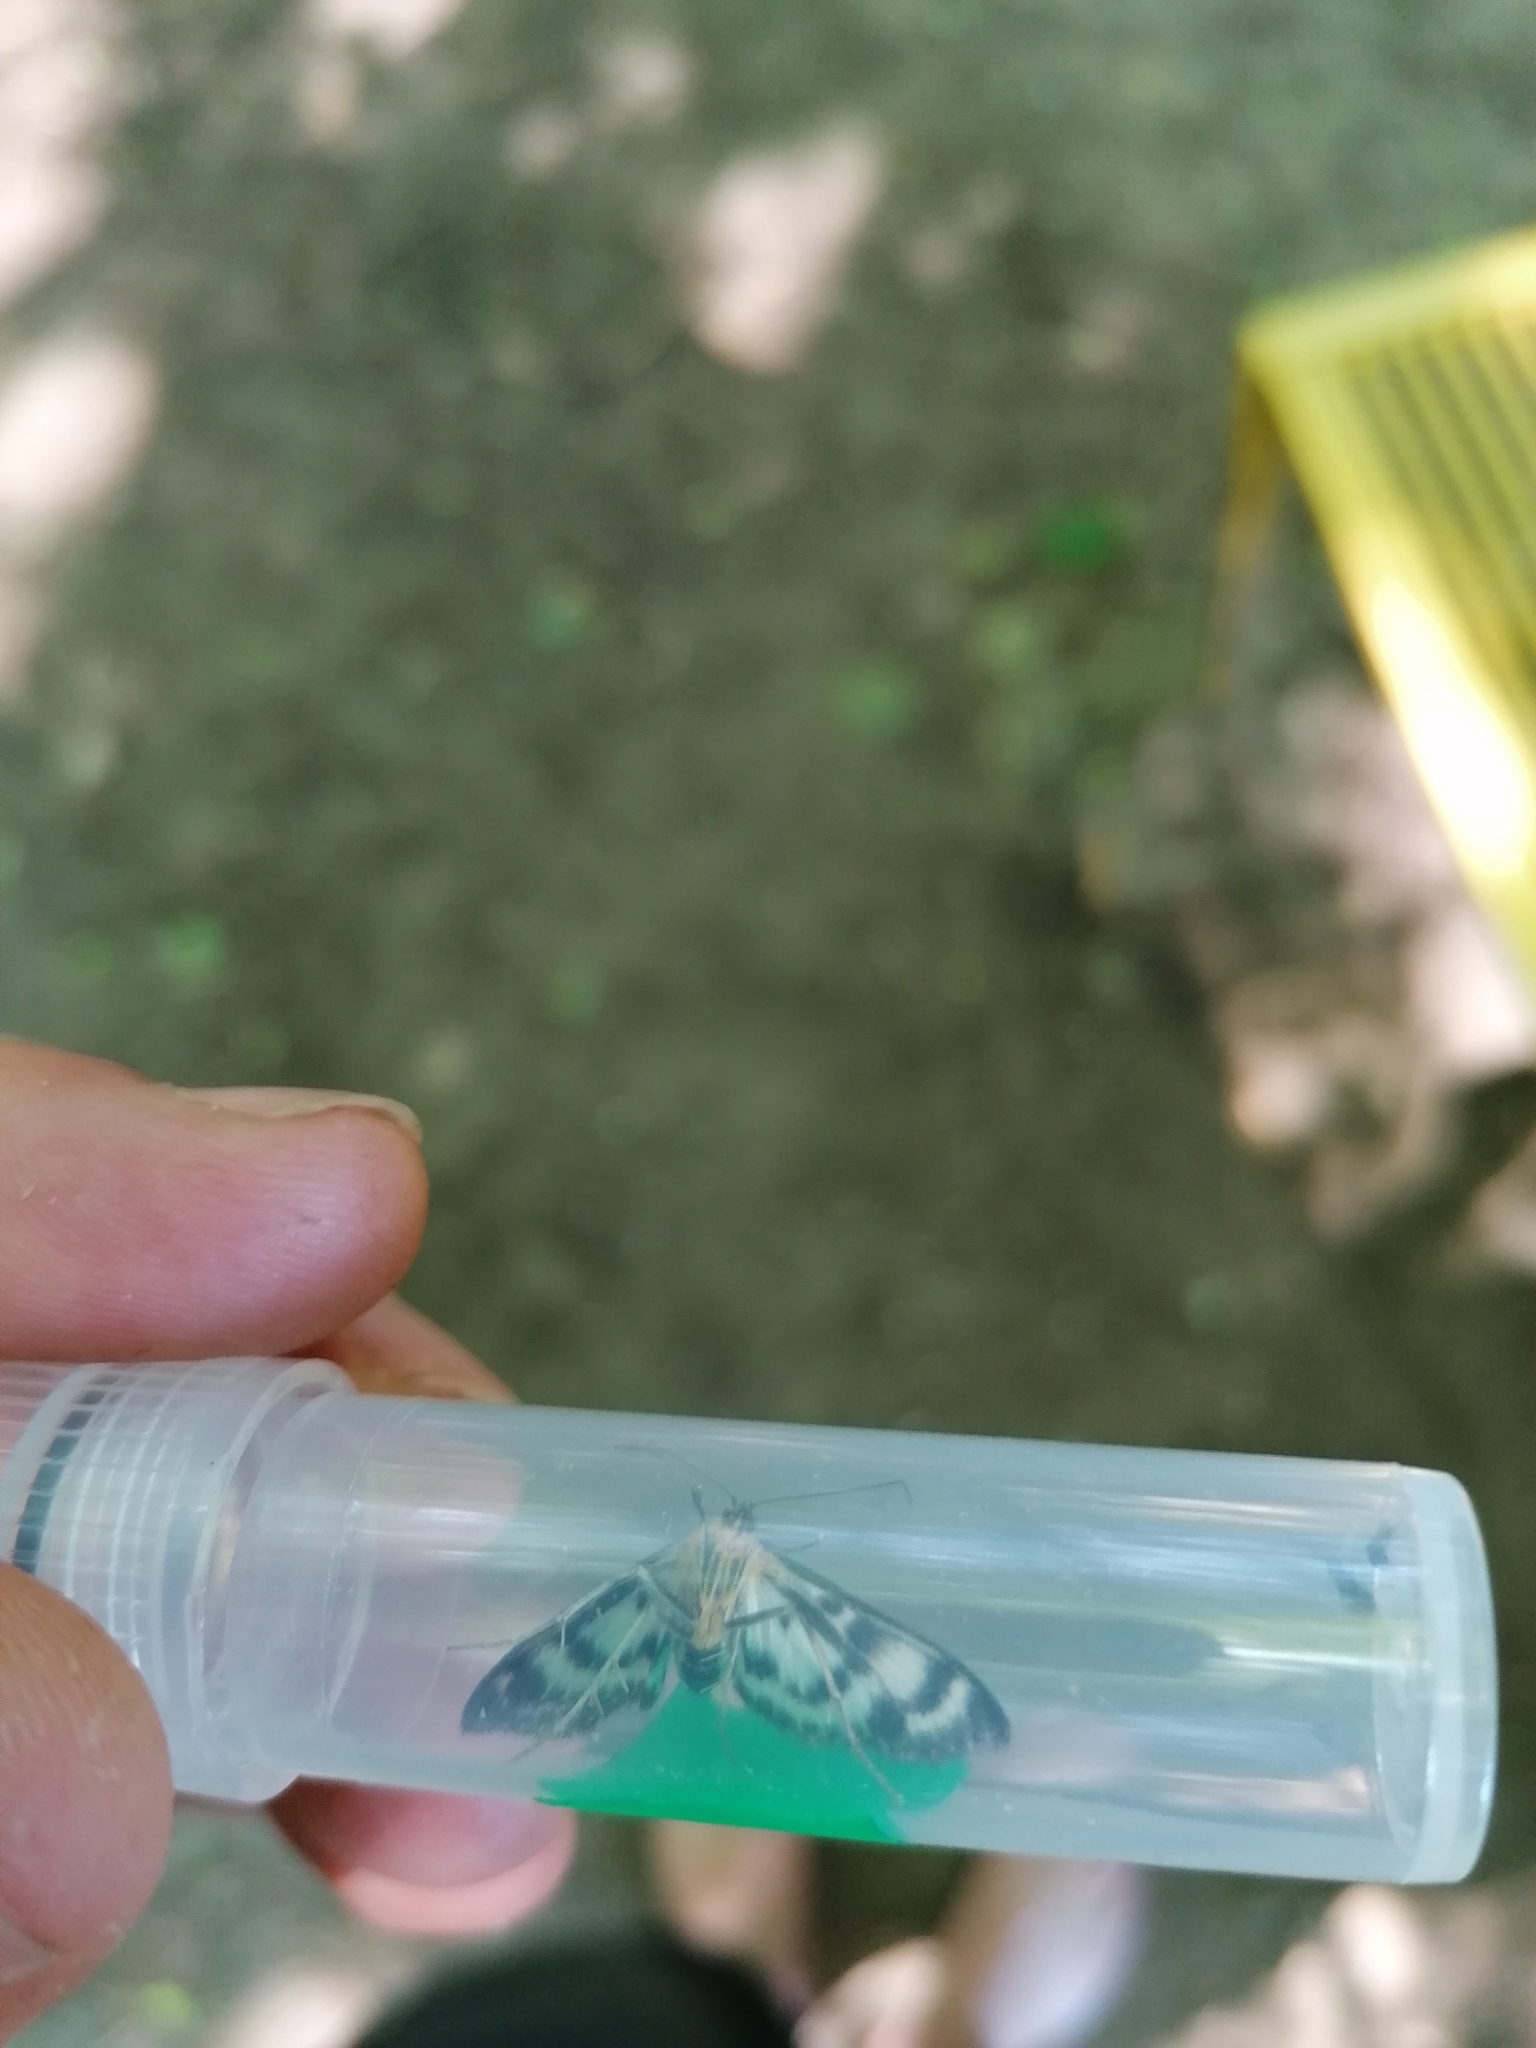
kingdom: Animalia
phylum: Arthropoda
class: Insecta
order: Lepidoptera
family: Crambidae
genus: Anania
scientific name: Anania hortulata
